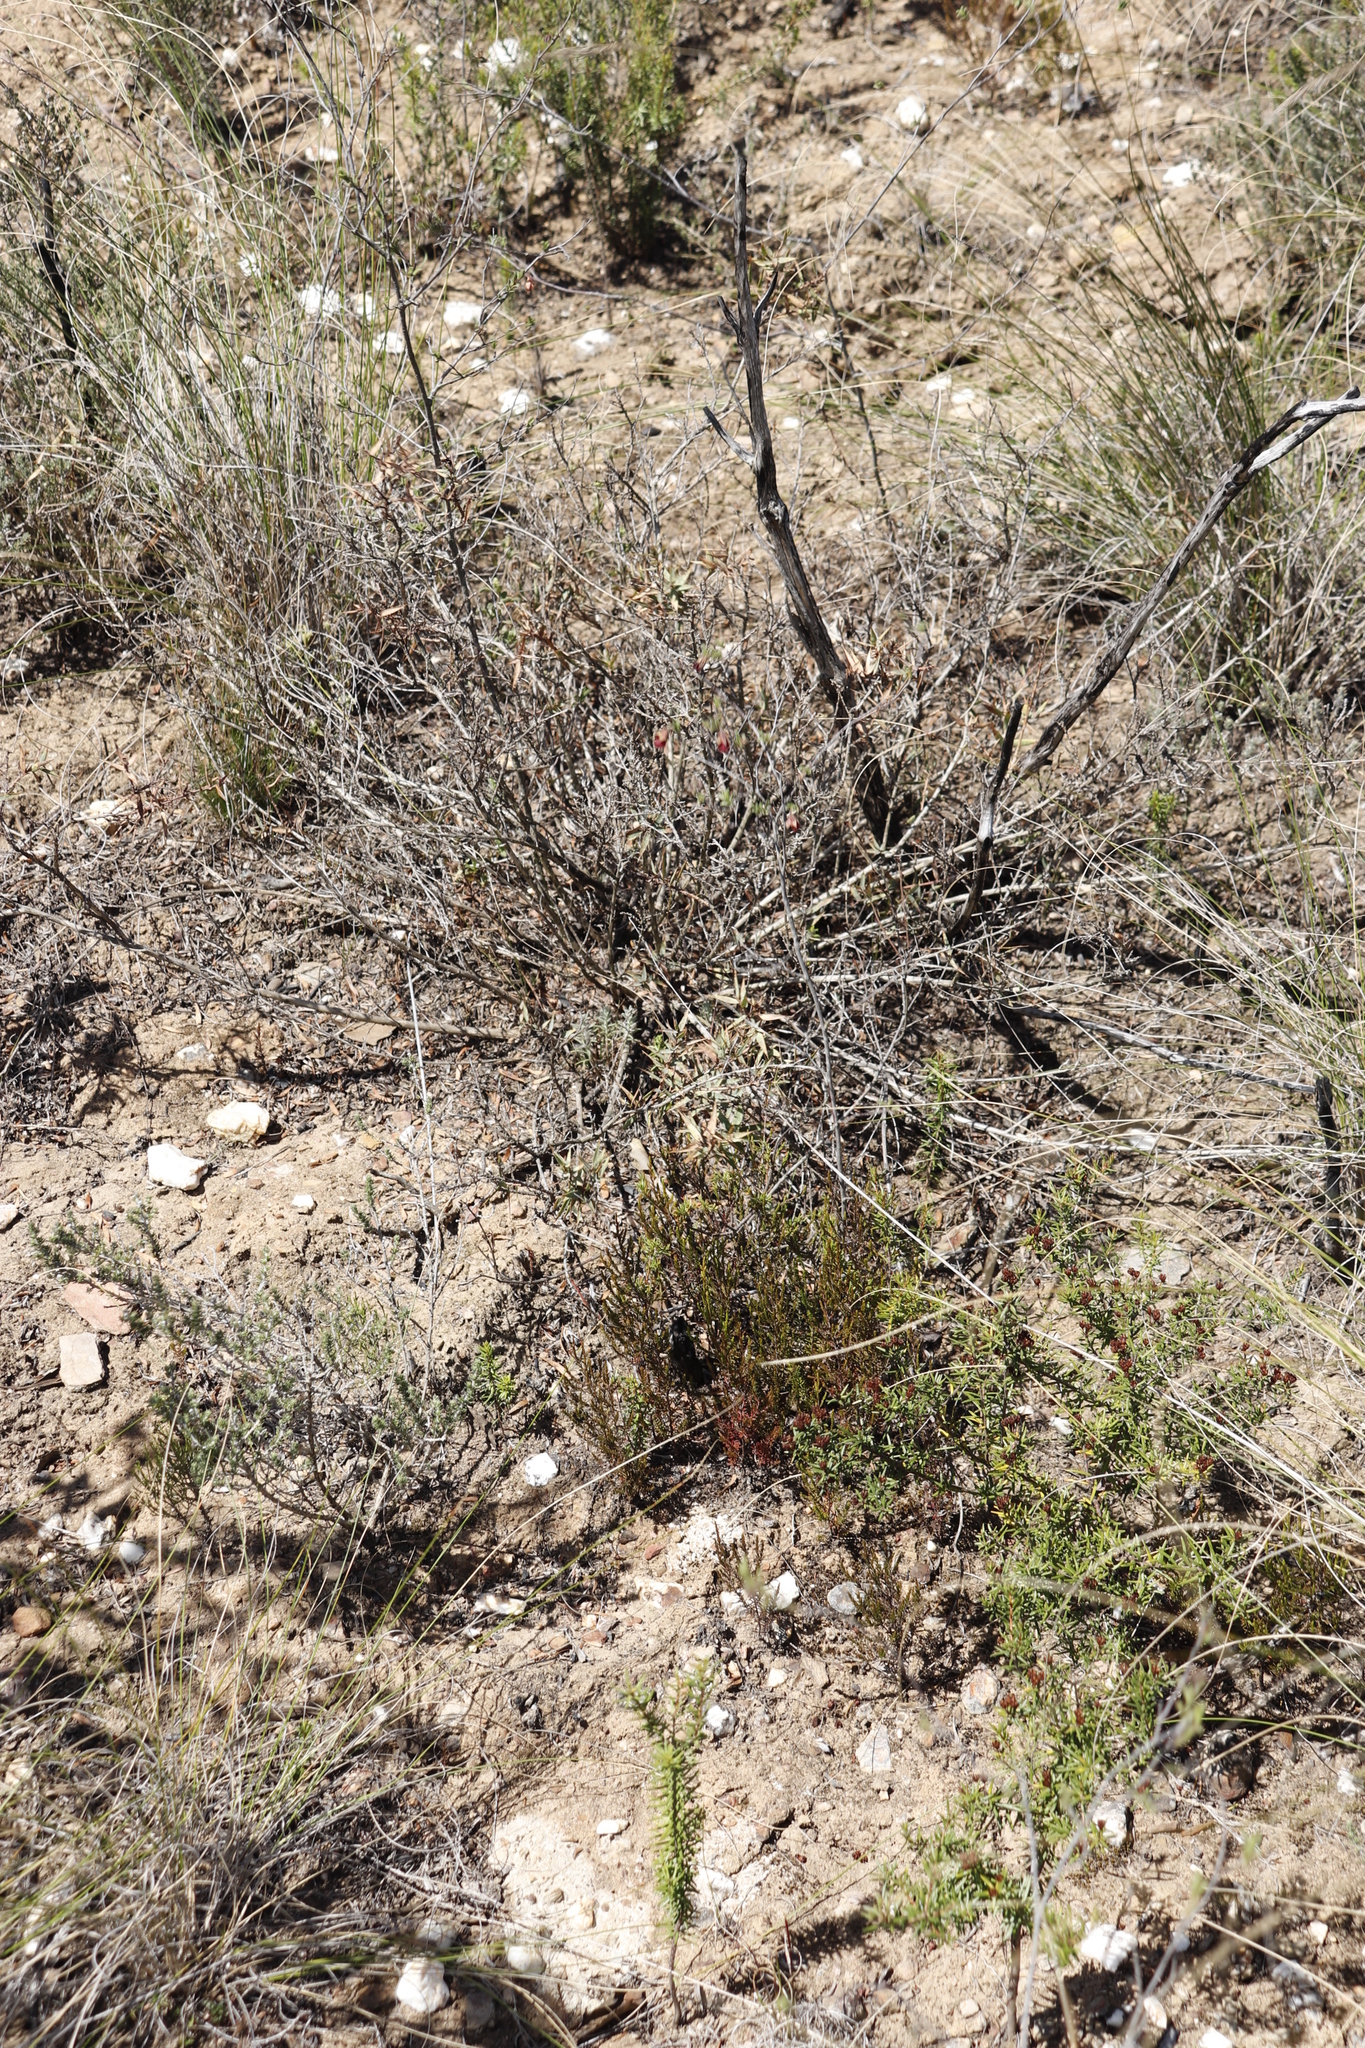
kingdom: Plantae
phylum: Tracheophyta
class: Magnoliopsida
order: Malvales
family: Malvaceae
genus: Hermannia
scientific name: Hermannia flammula
